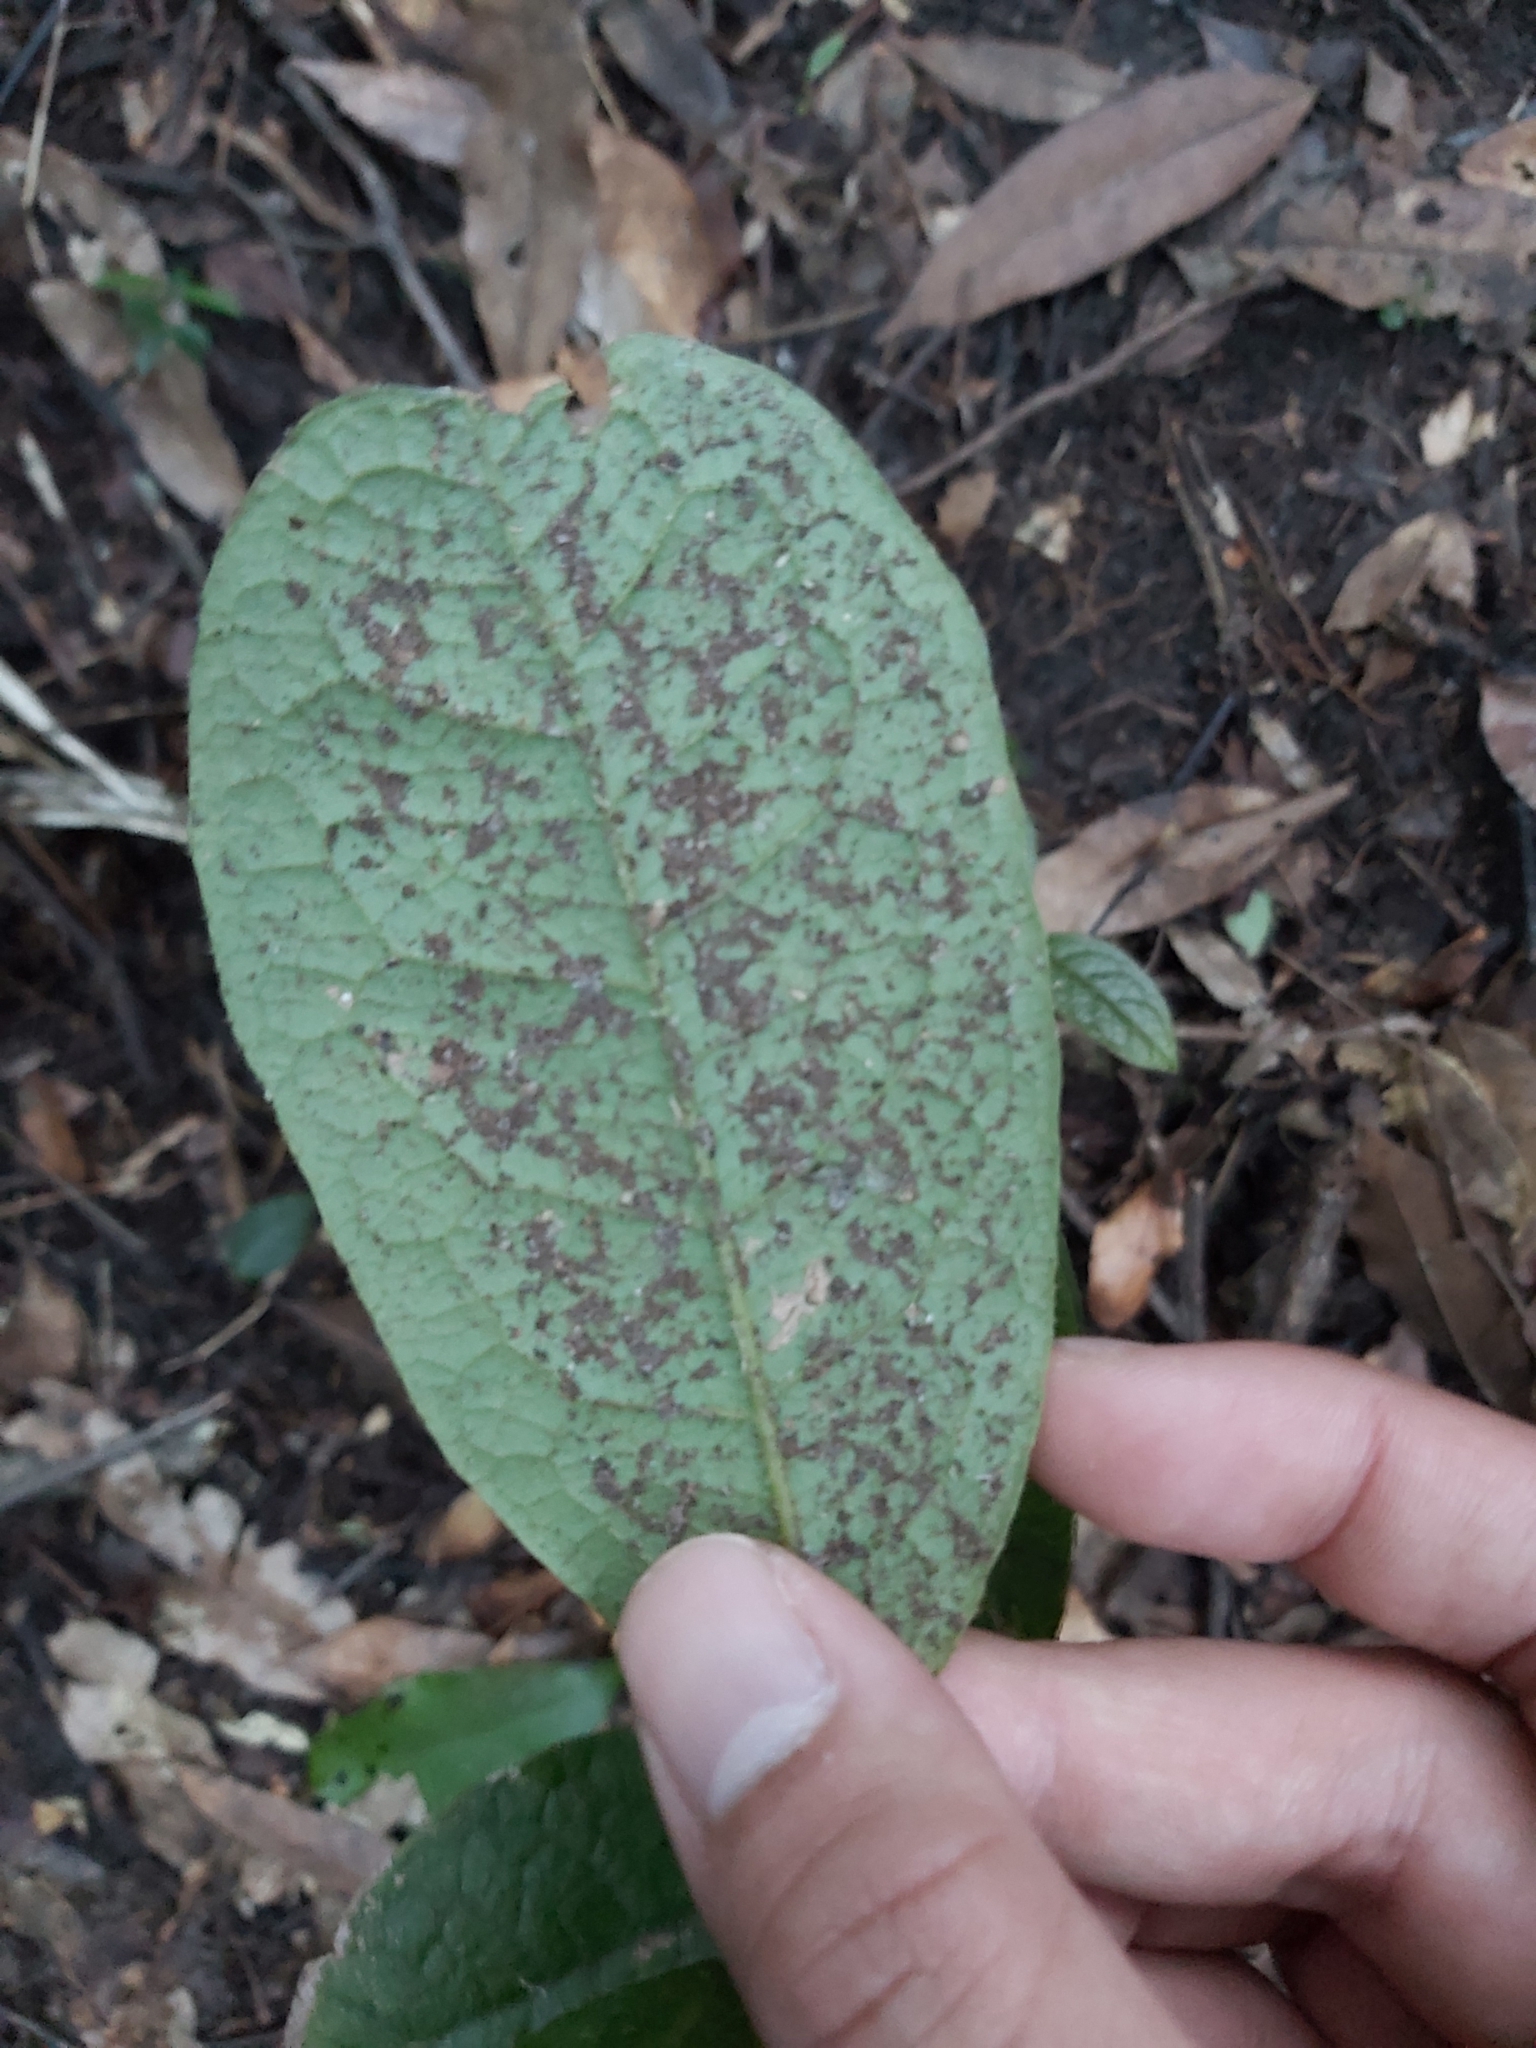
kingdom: Plantae
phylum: Tracheophyta
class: Magnoliopsida
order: Laurales
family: Monimiaceae
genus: Palmeria
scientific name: Palmeria scandens
